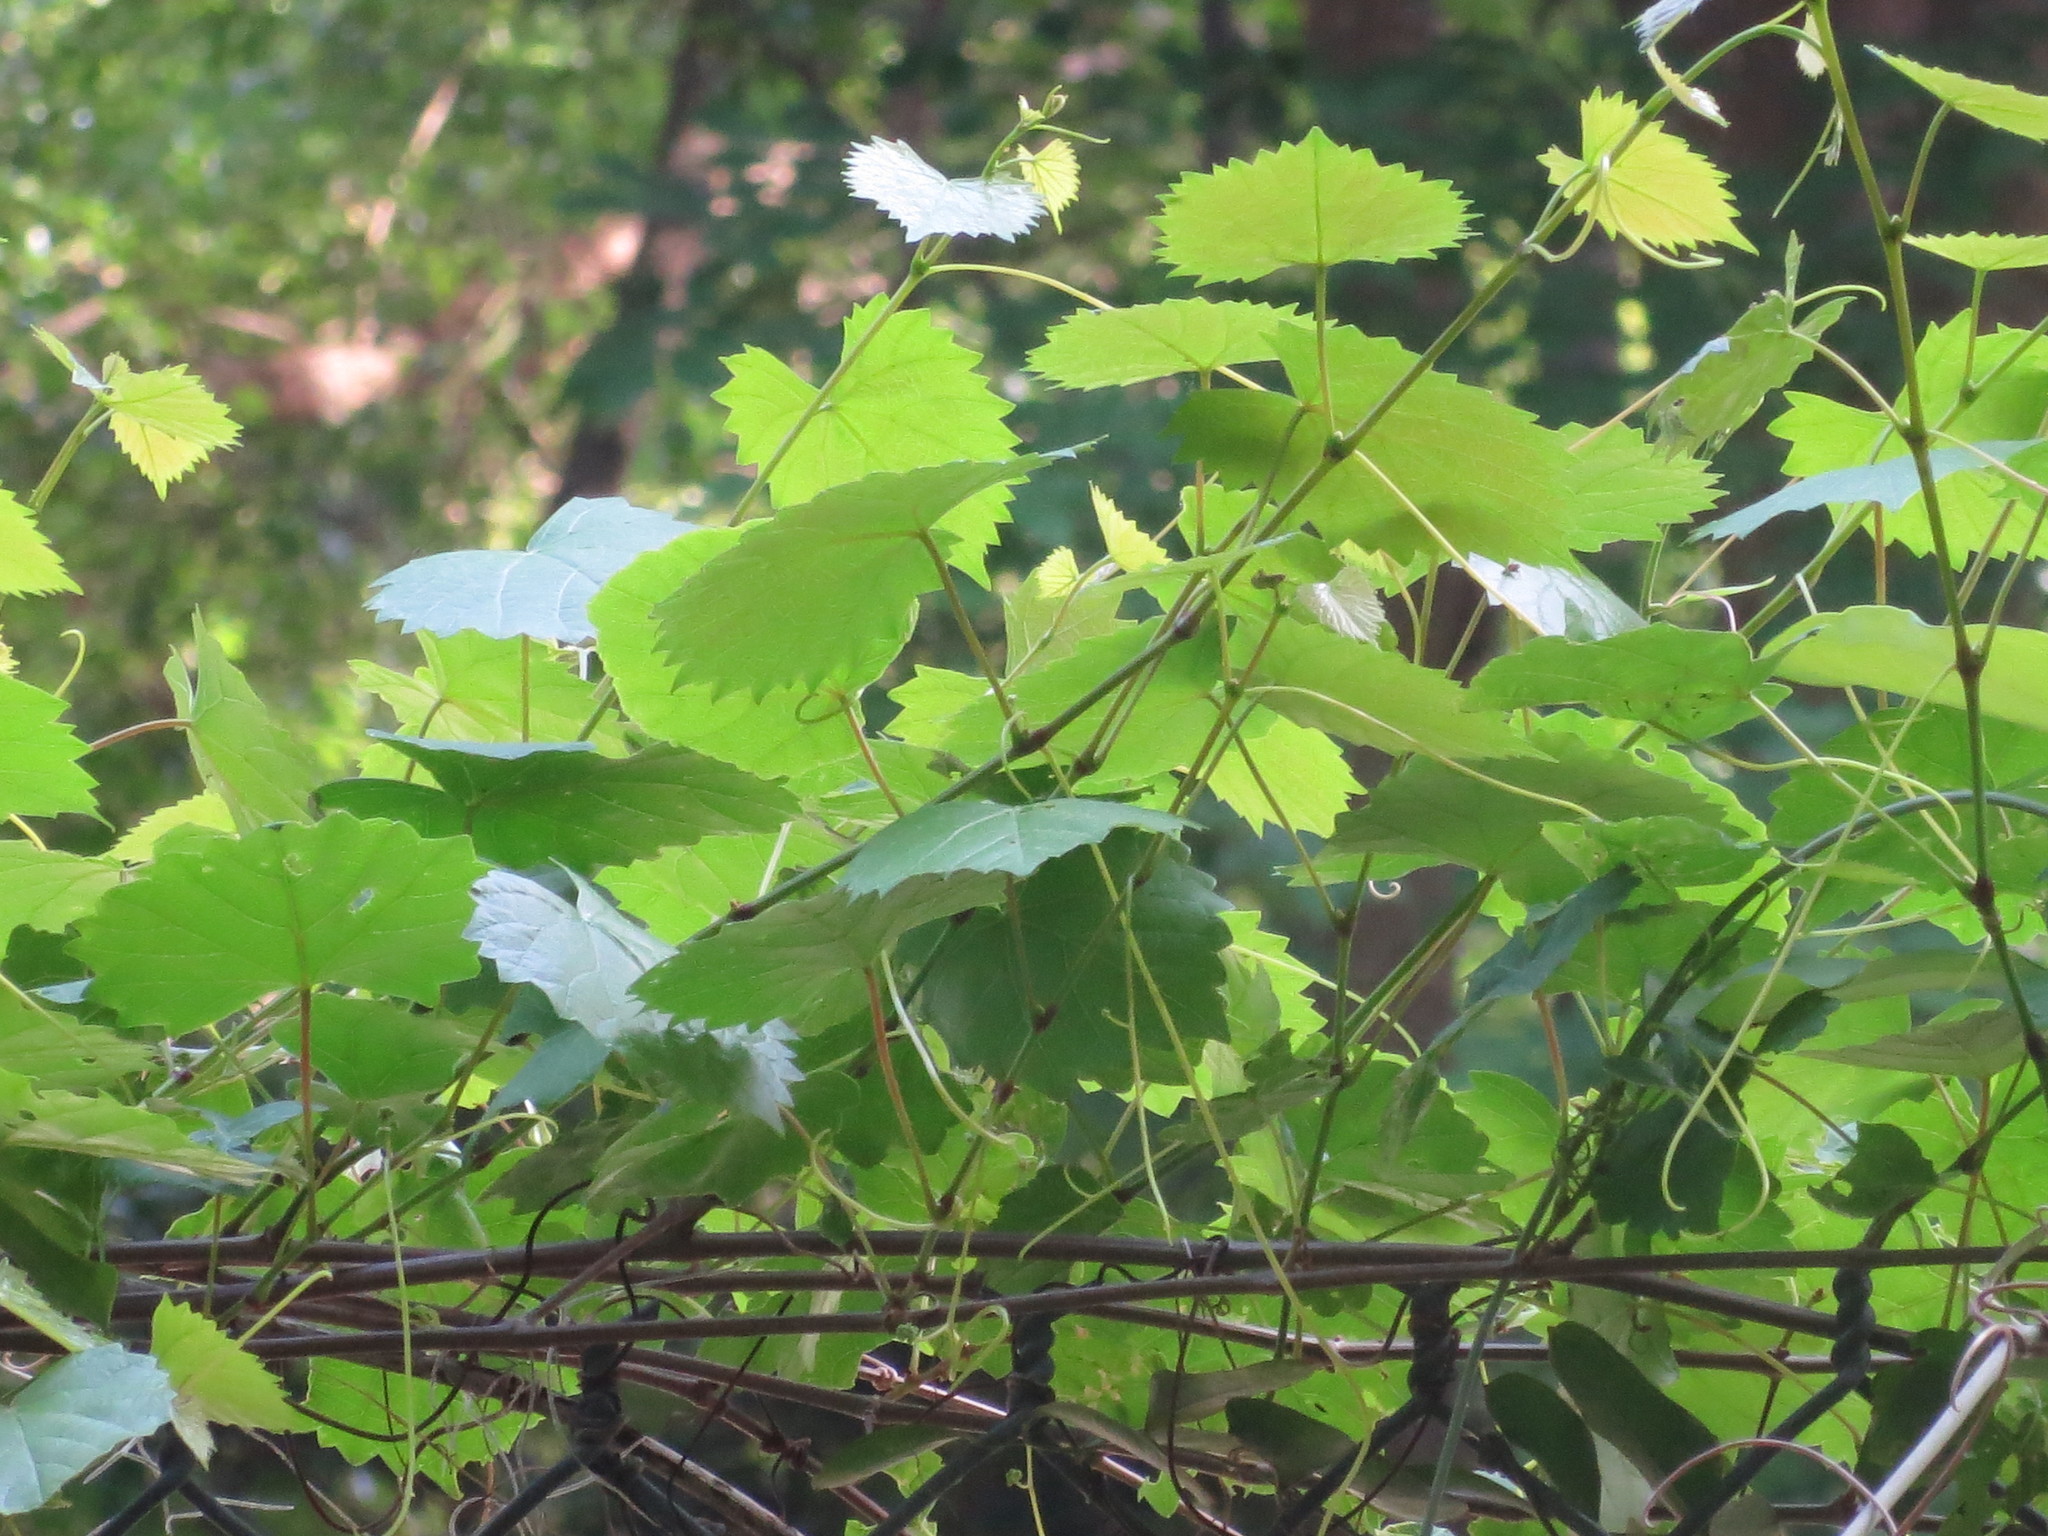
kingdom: Plantae
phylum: Tracheophyta
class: Magnoliopsida
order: Vitales
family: Vitaceae
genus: Vitis
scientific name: Vitis rotundifolia
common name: Muscadine grape
